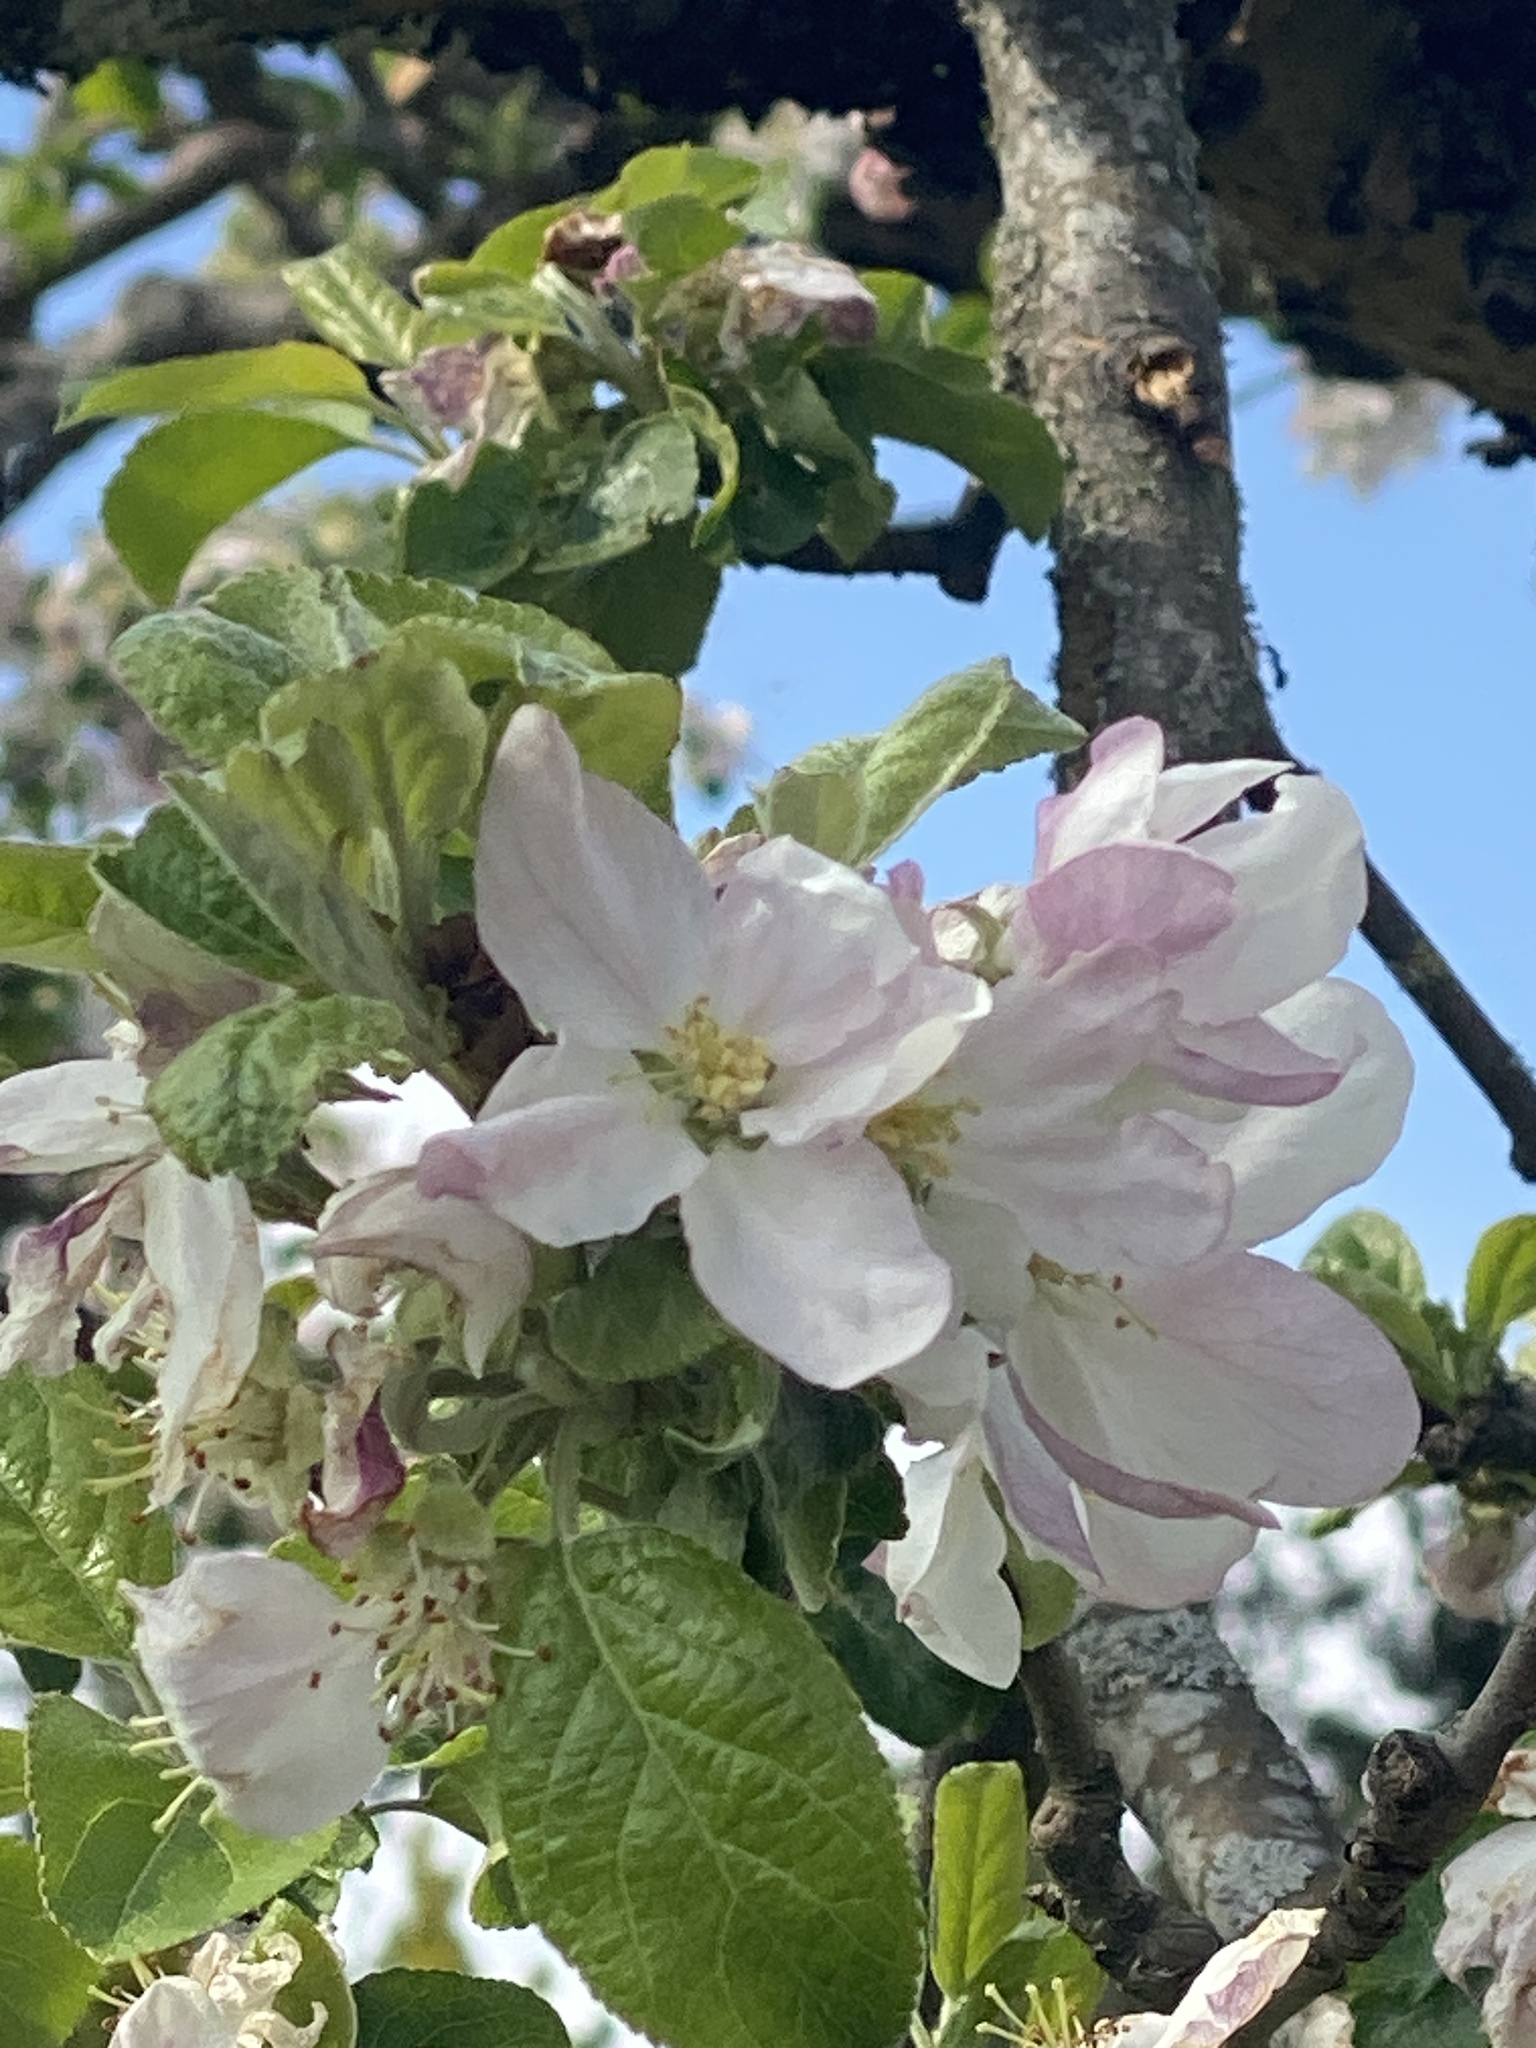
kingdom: Plantae
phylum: Tracheophyta
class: Magnoliopsida
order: Rosales
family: Rosaceae
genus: Malus
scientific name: Malus domestica
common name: Apple
